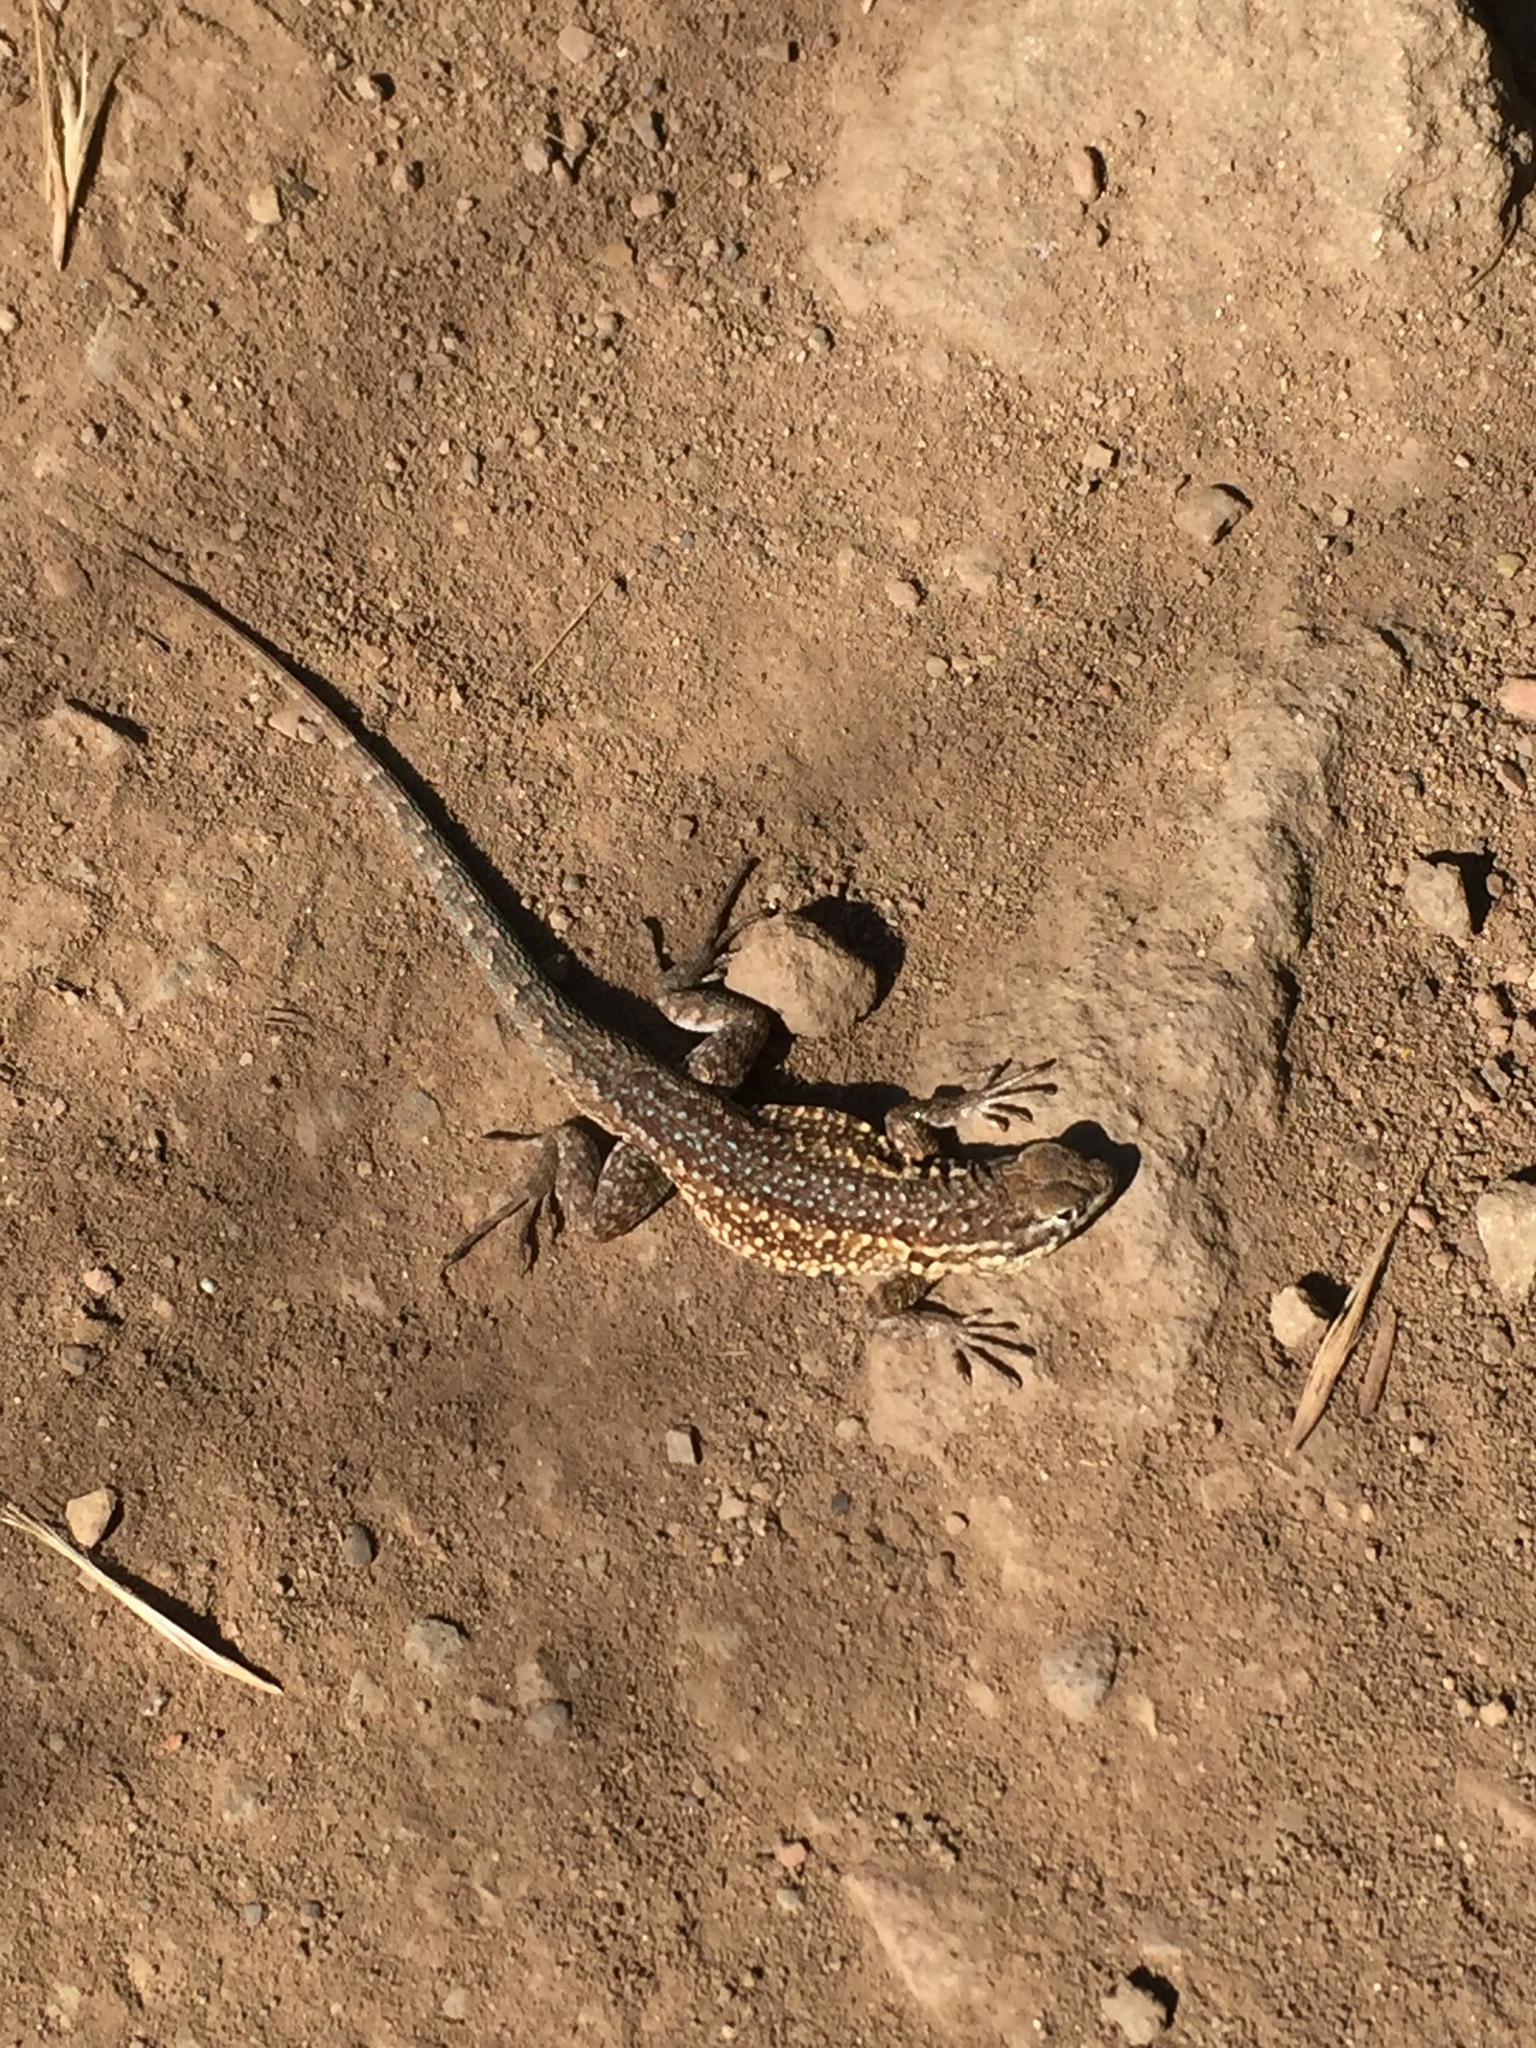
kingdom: Animalia
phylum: Chordata
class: Squamata
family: Phrynosomatidae
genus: Uta
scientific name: Uta stansburiana
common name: Side-blotched lizard
